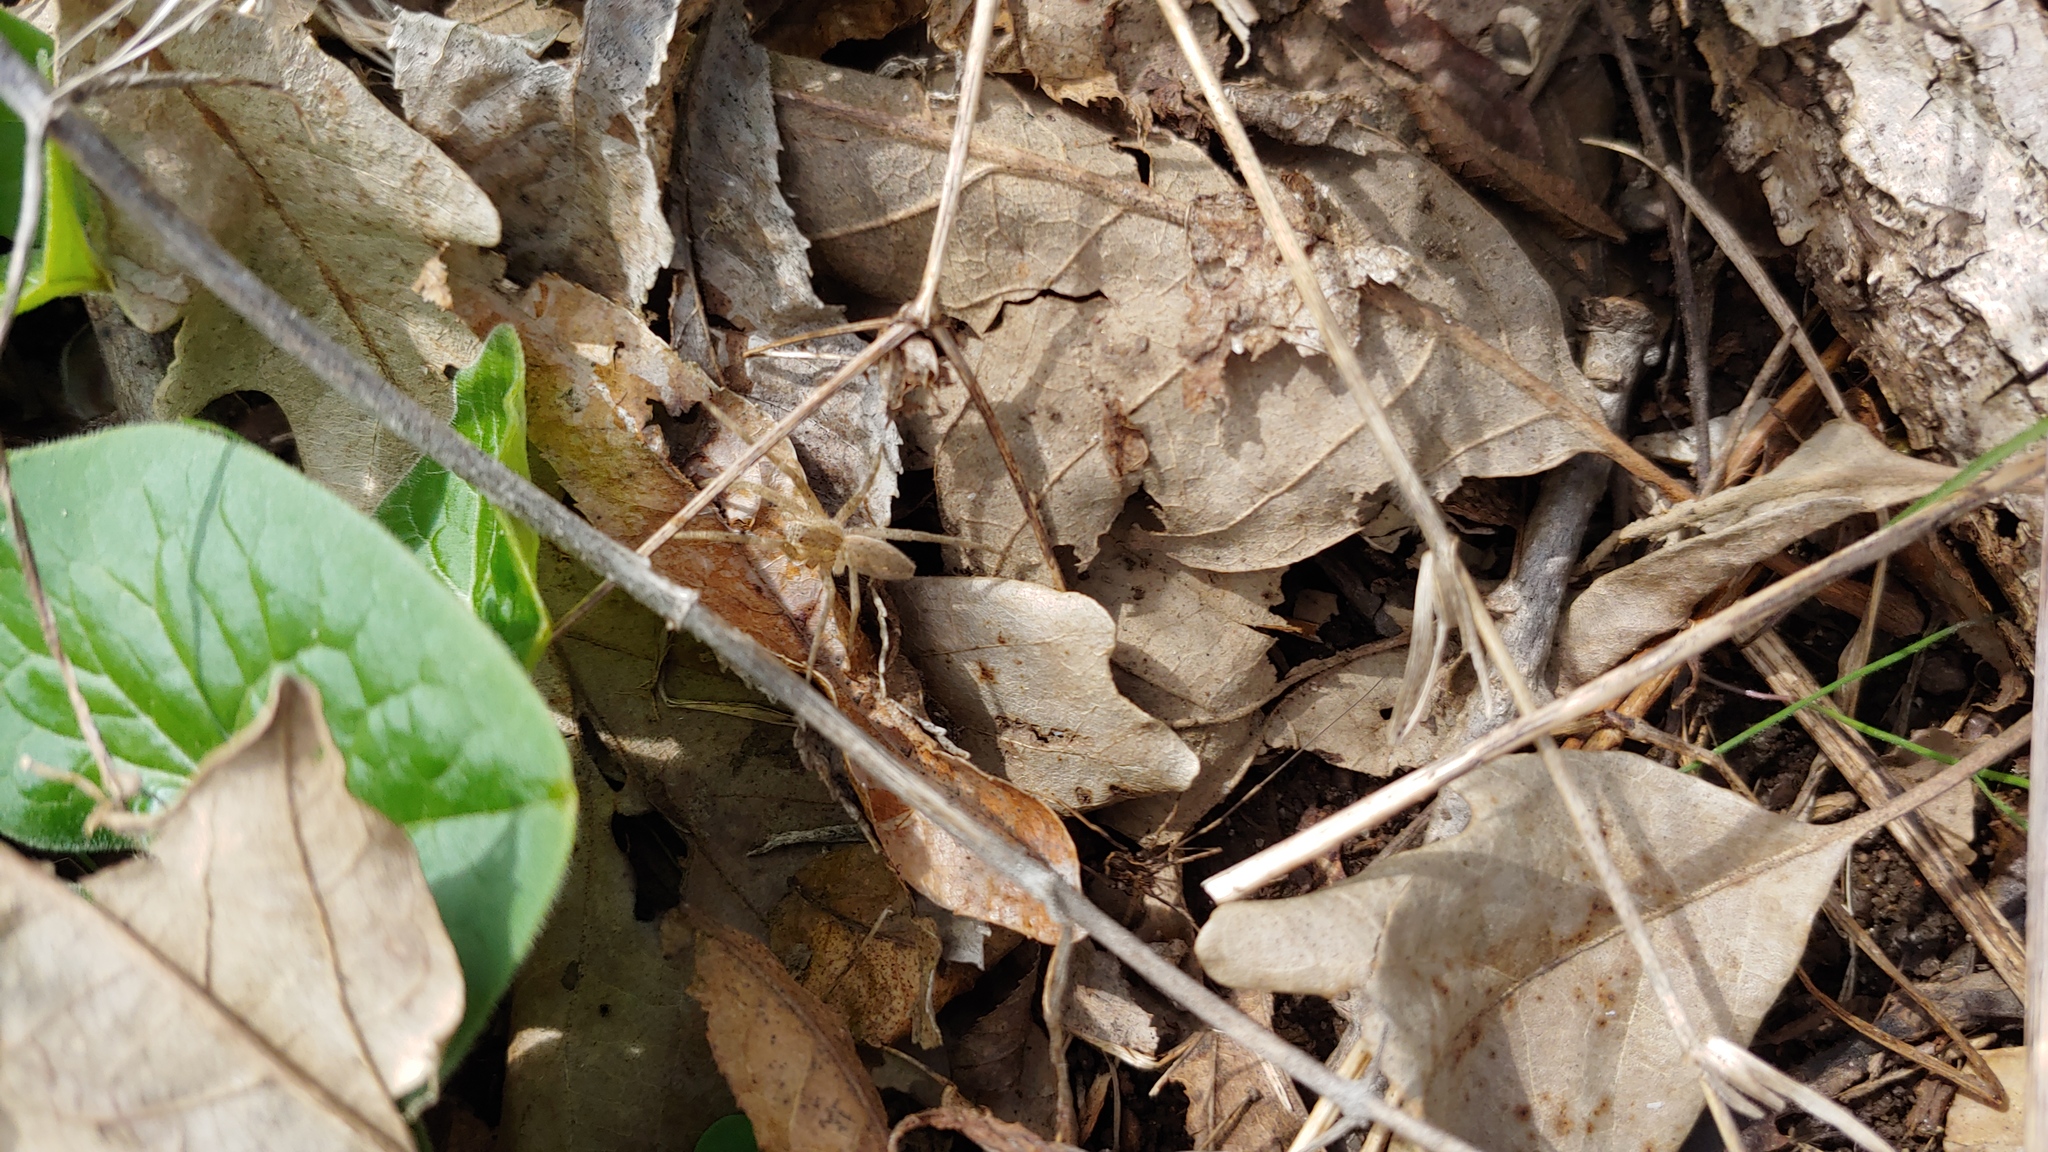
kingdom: Animalia
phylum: Arthropoda
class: Arachnida
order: Araneae
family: Pisauridae
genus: Pisaurina
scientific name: Pisaurina mira
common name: American nursery web spider
